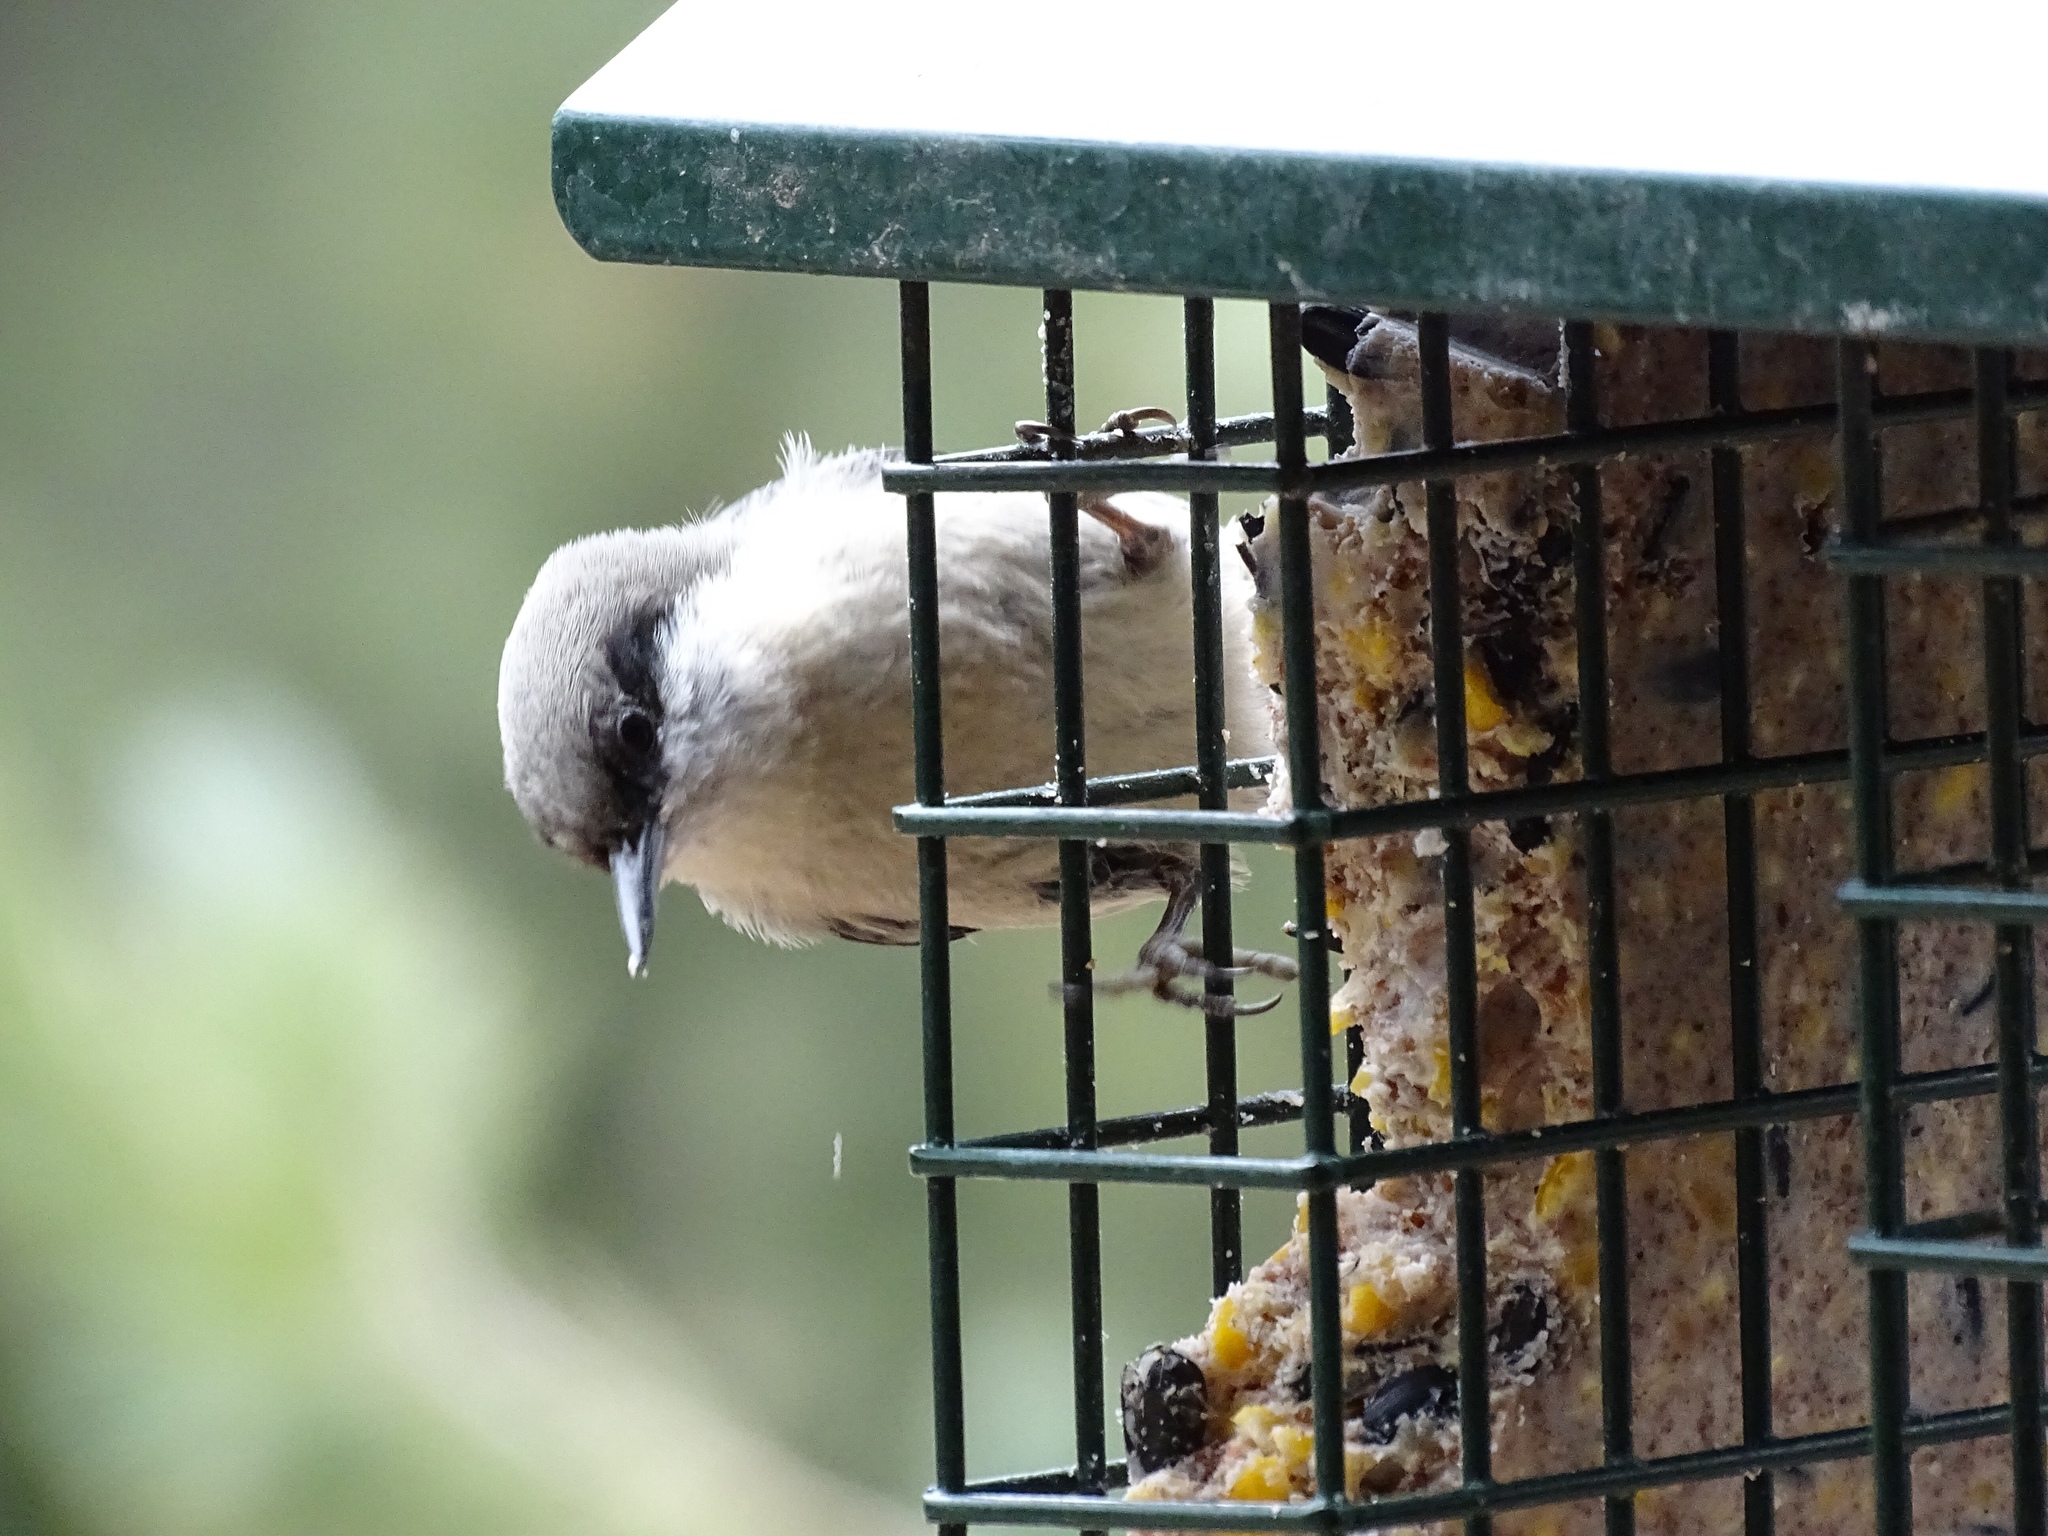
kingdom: Animalia
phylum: Chordata
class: Aves
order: Passeriformes
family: Sittidae
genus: Sitta
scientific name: Sitta pygmaea
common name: Pygmy nuthatch
